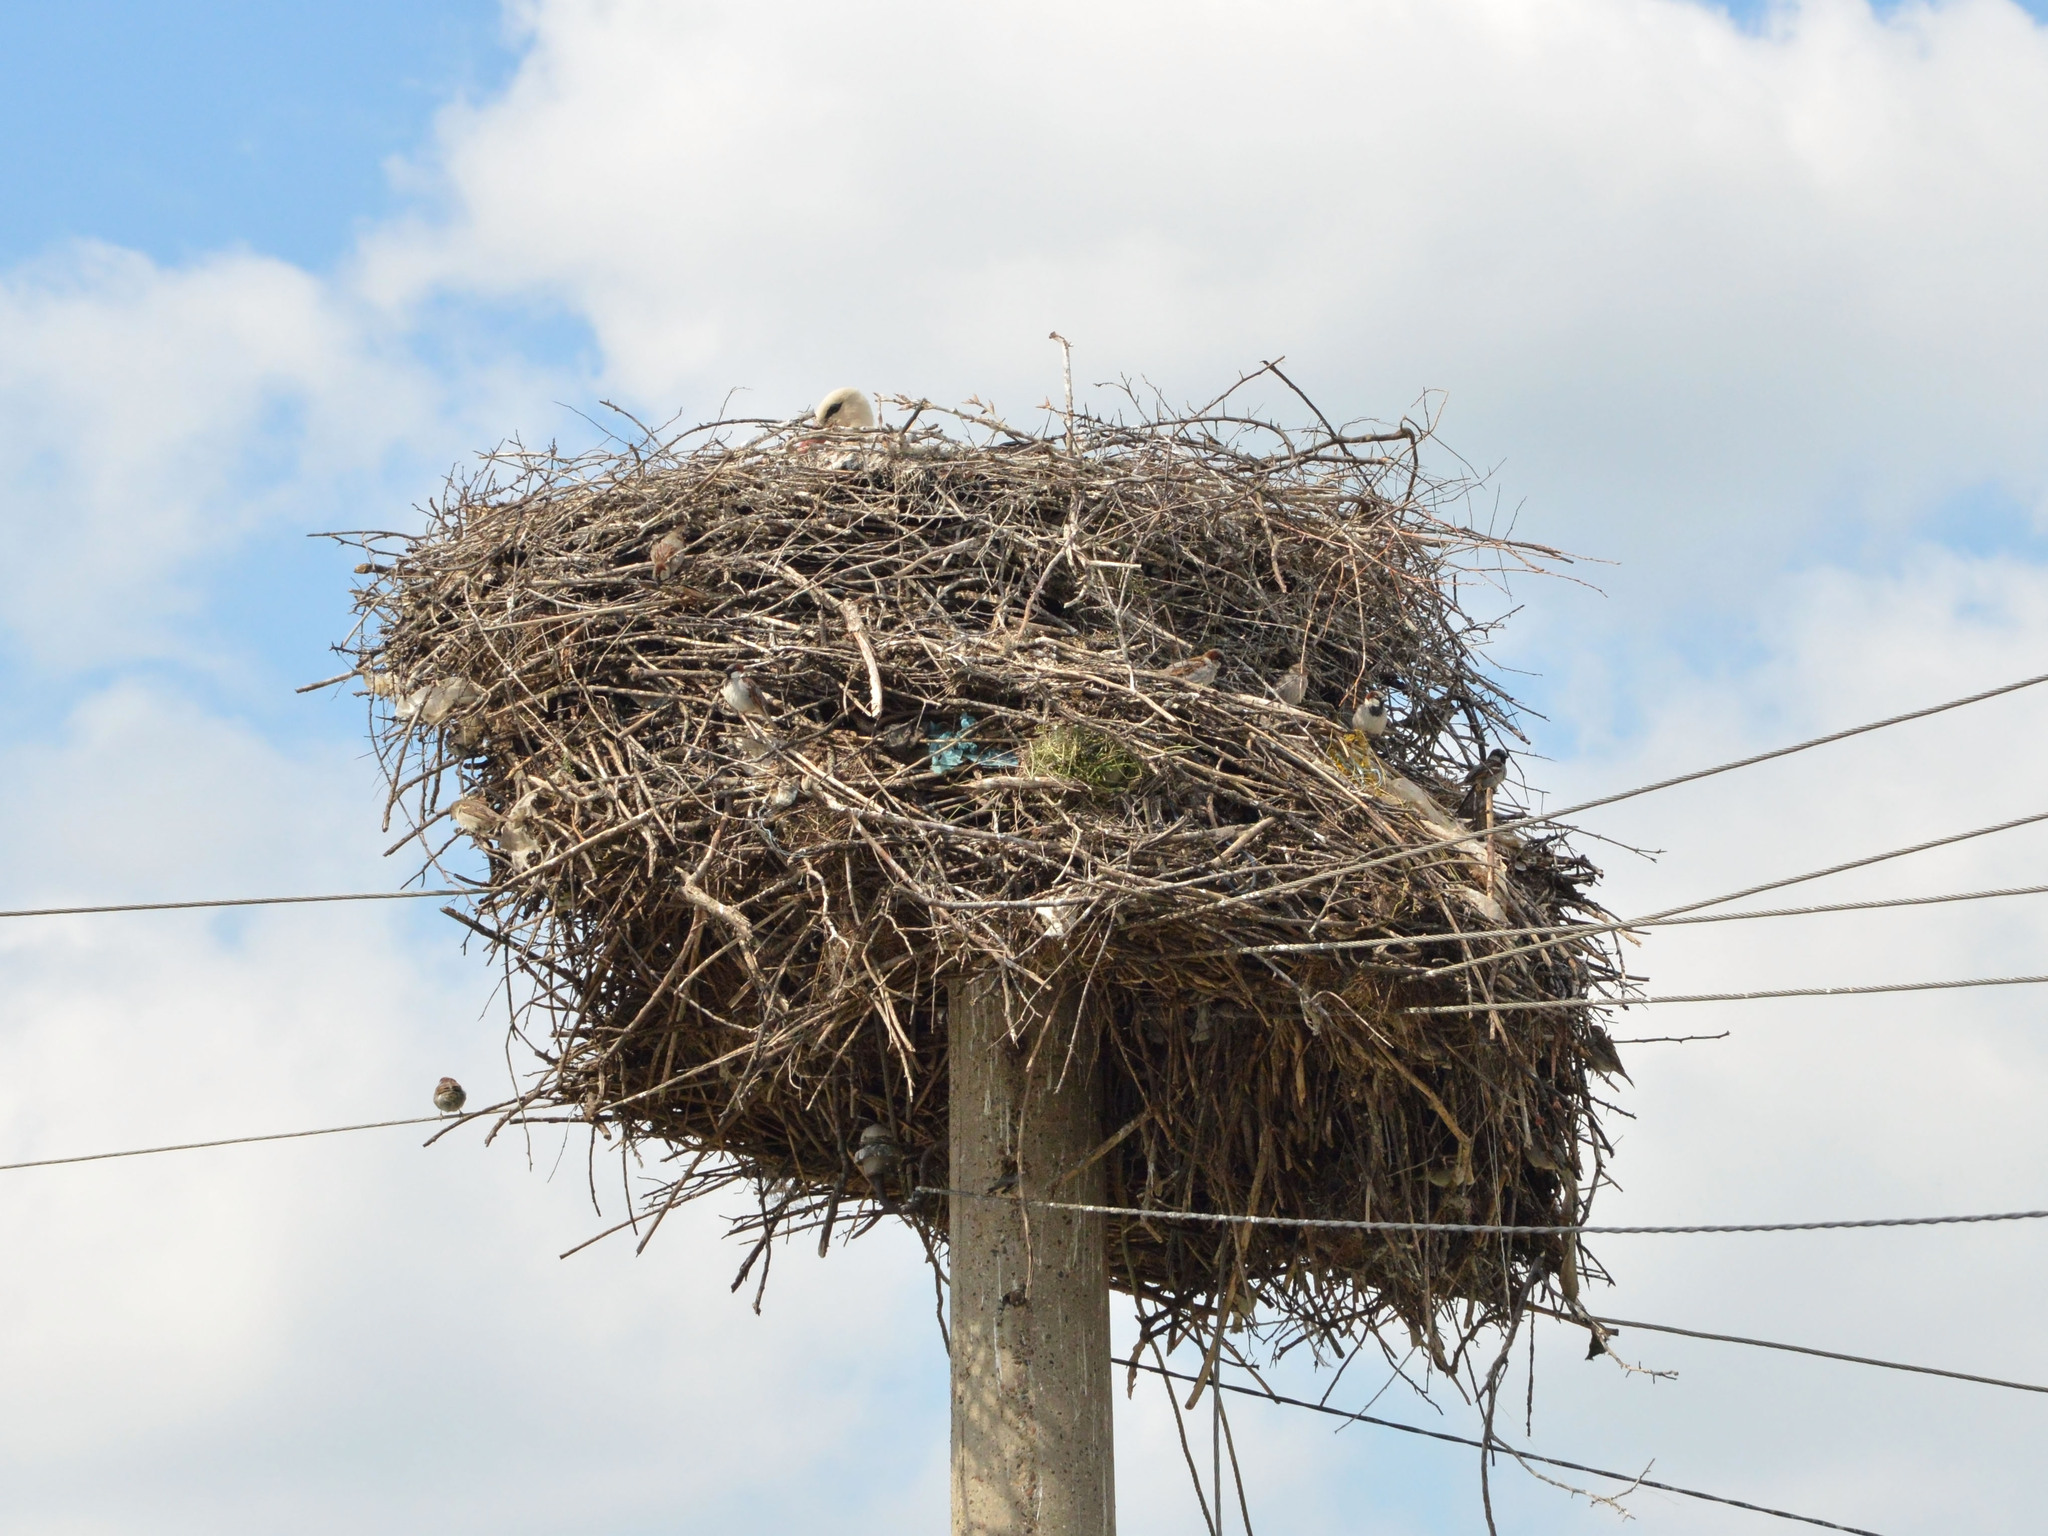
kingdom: Animalia
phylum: Chordata
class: Aves
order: Ciconiiformes
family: Ciconiidae
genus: Ciconia
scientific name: Ciconia ciconia
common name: White stork
